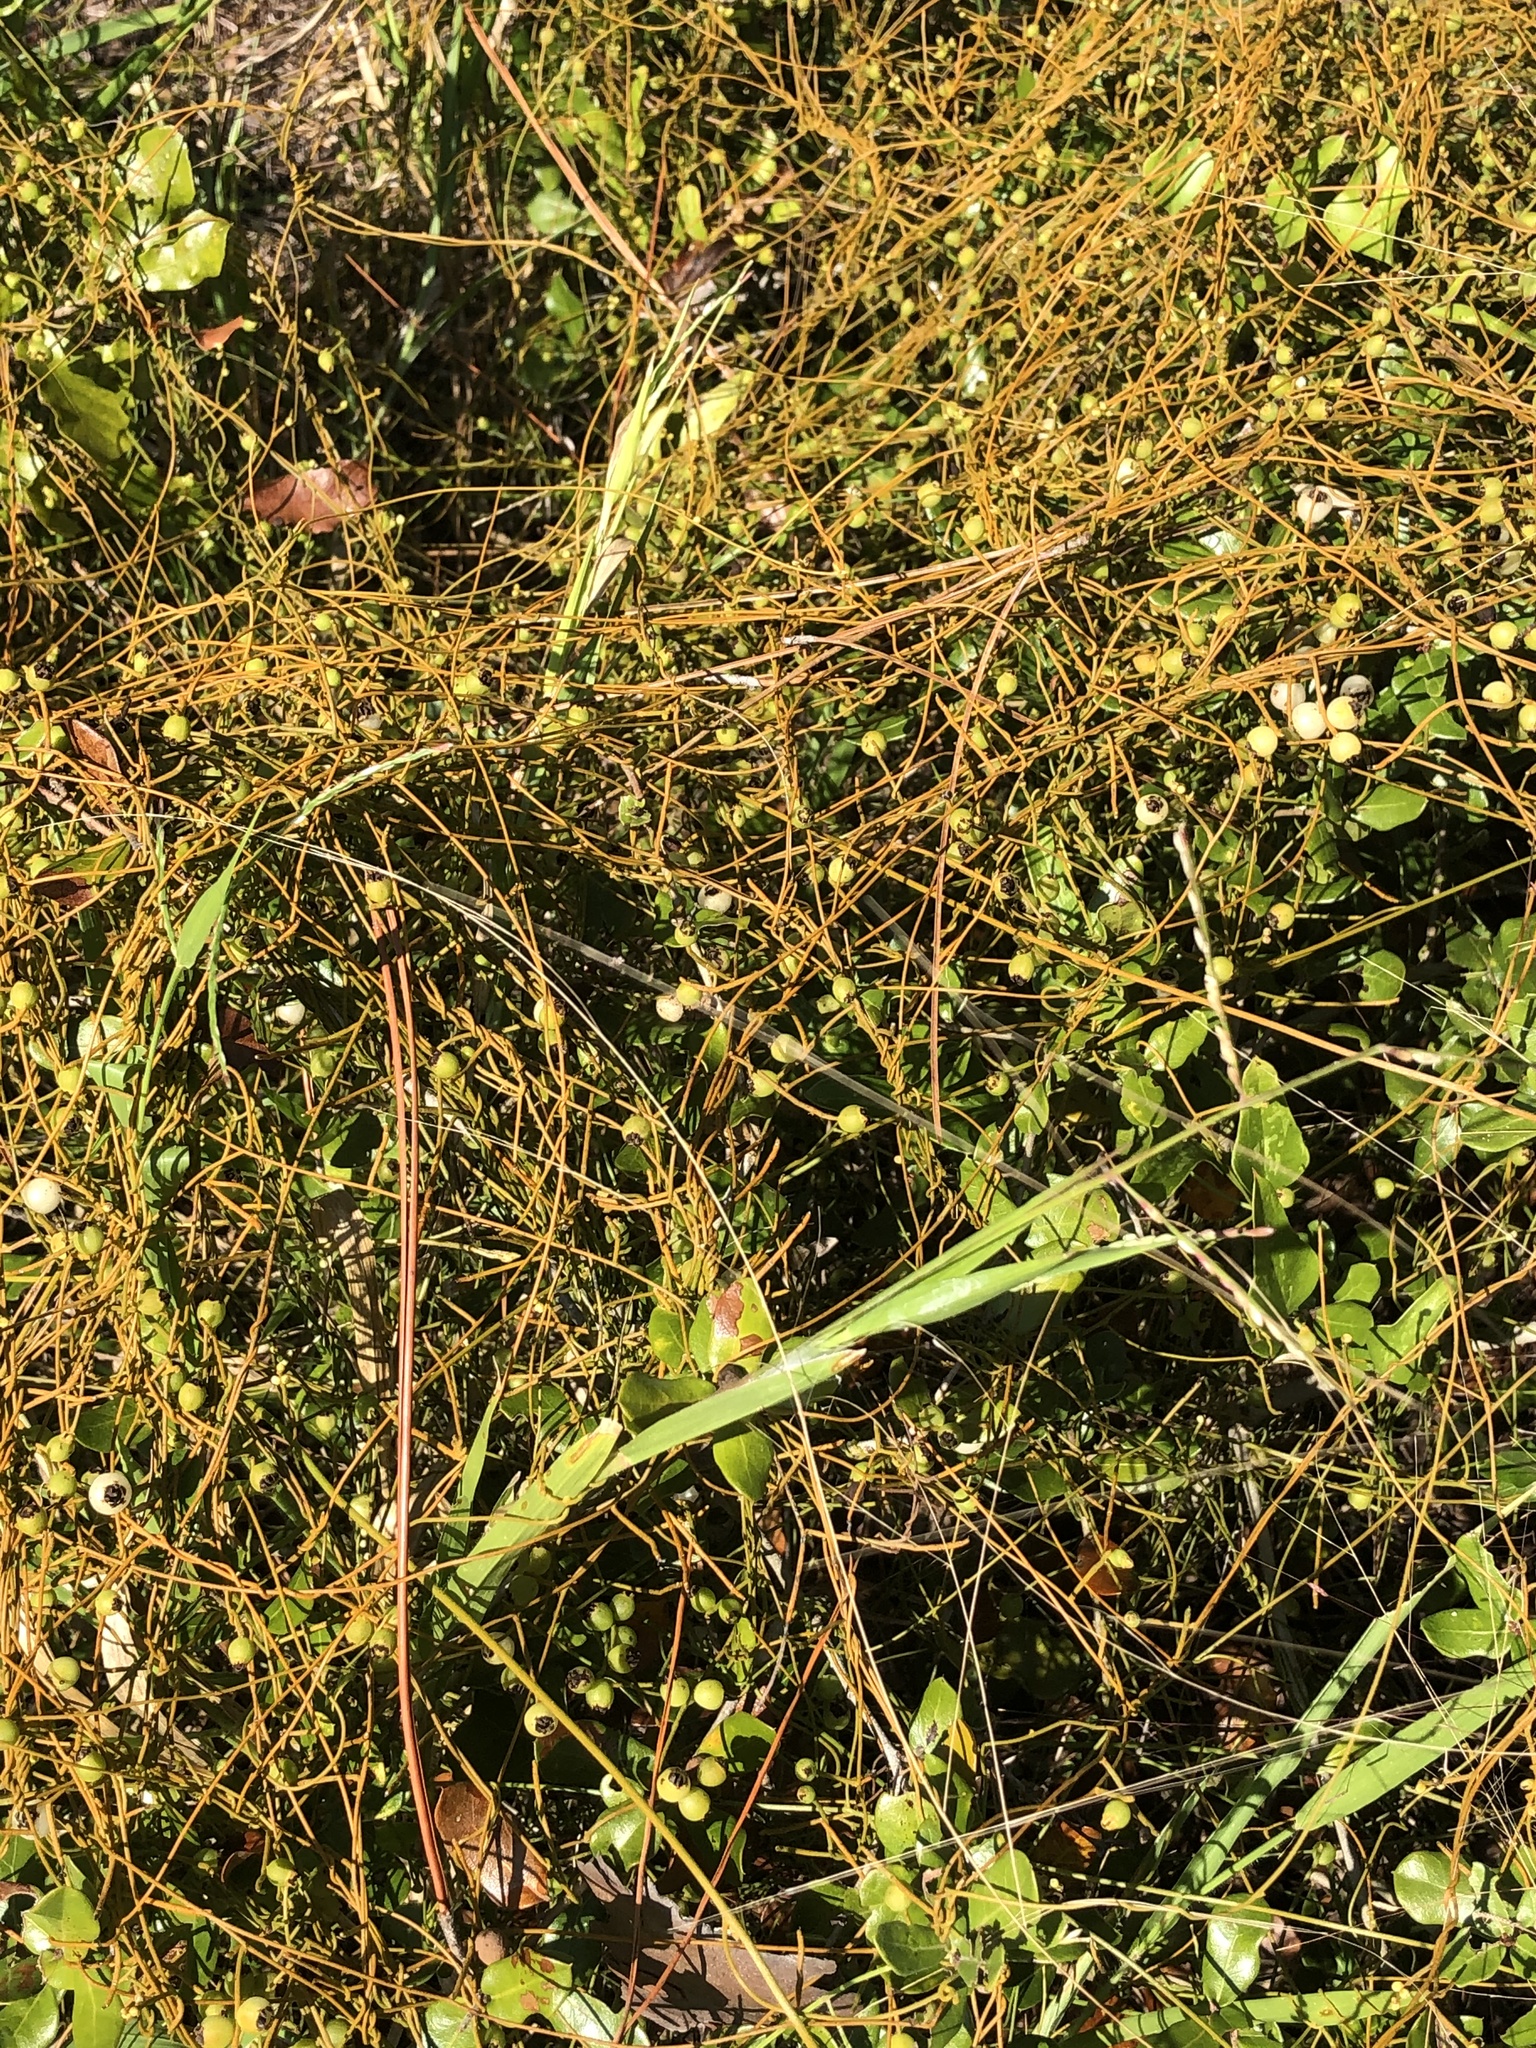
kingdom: Plantae
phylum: Tracheophyta
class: Magnoliopsida
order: Laurales
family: Lauraceae
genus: Cassytha
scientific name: Cassytha filiformis
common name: Dodder-laurel
